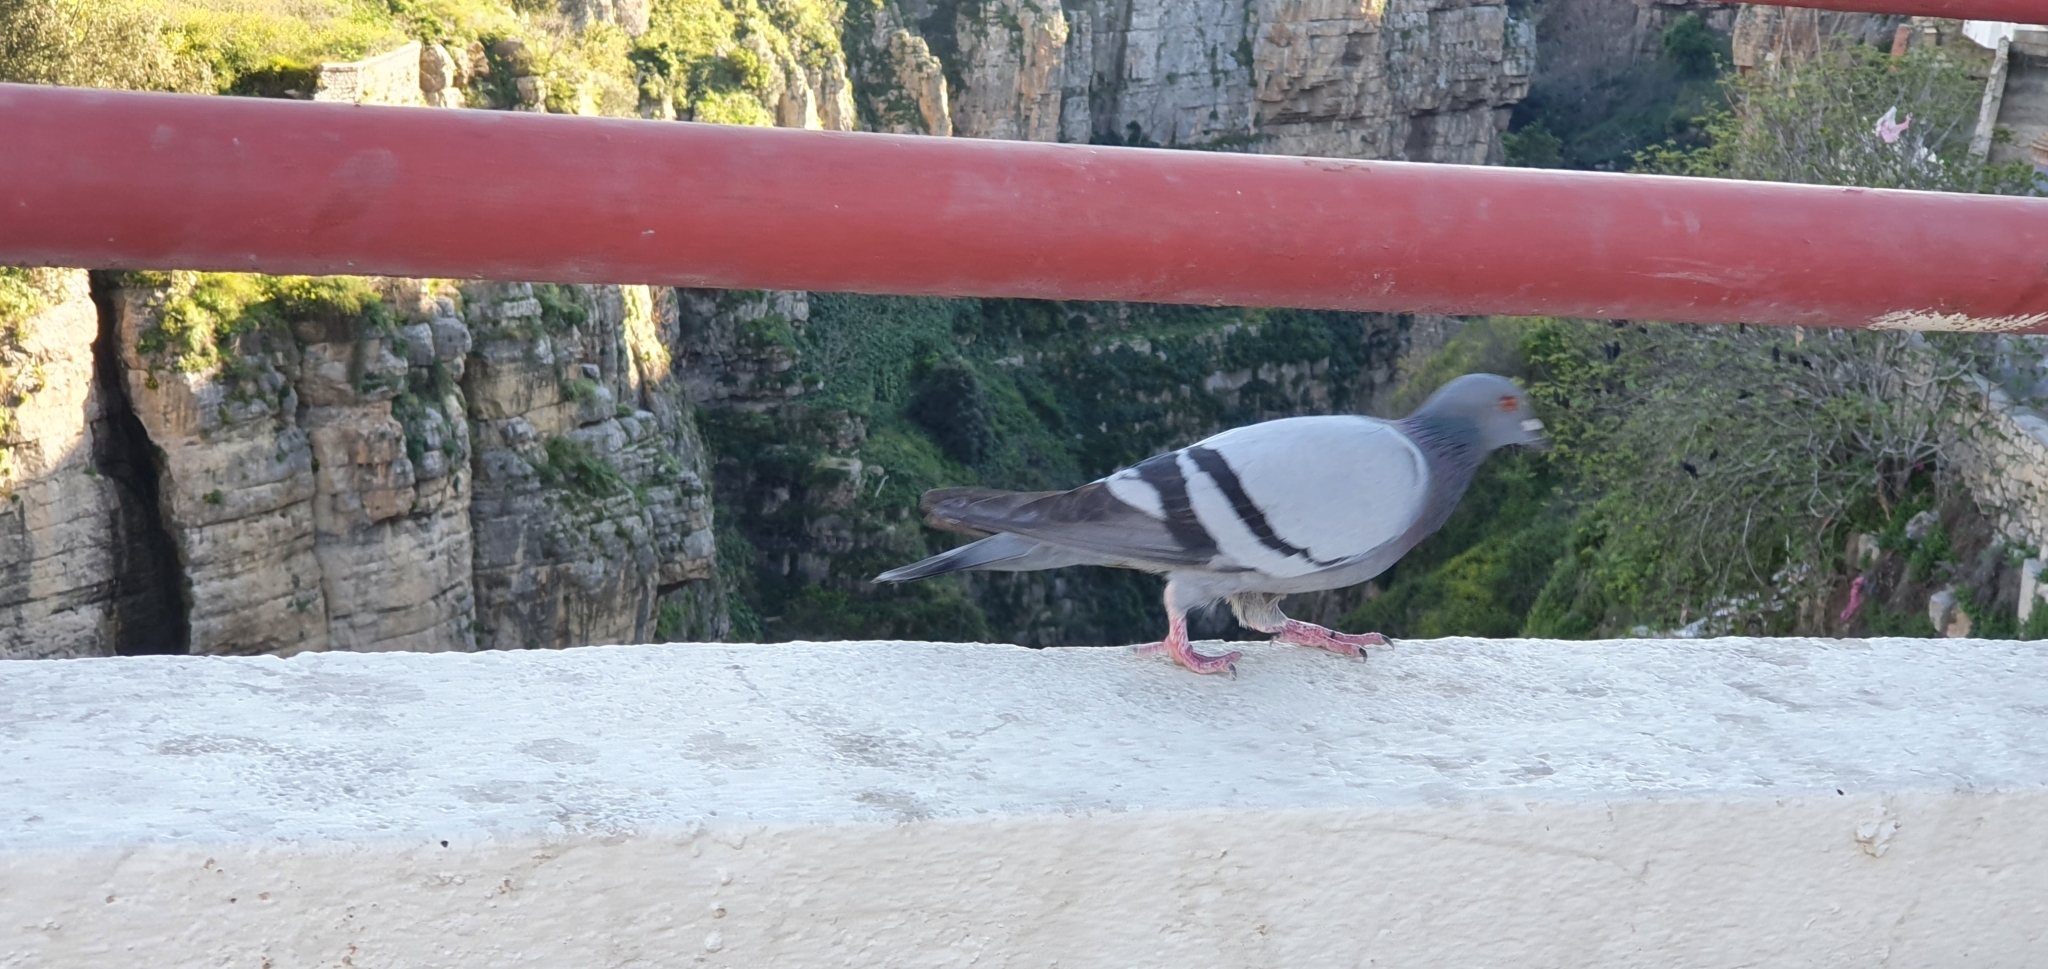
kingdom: Animalia
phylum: Chordata
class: Aves
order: Columbiformes
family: Columbidae
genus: Columba
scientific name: Columba livia
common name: Rock pigeon
